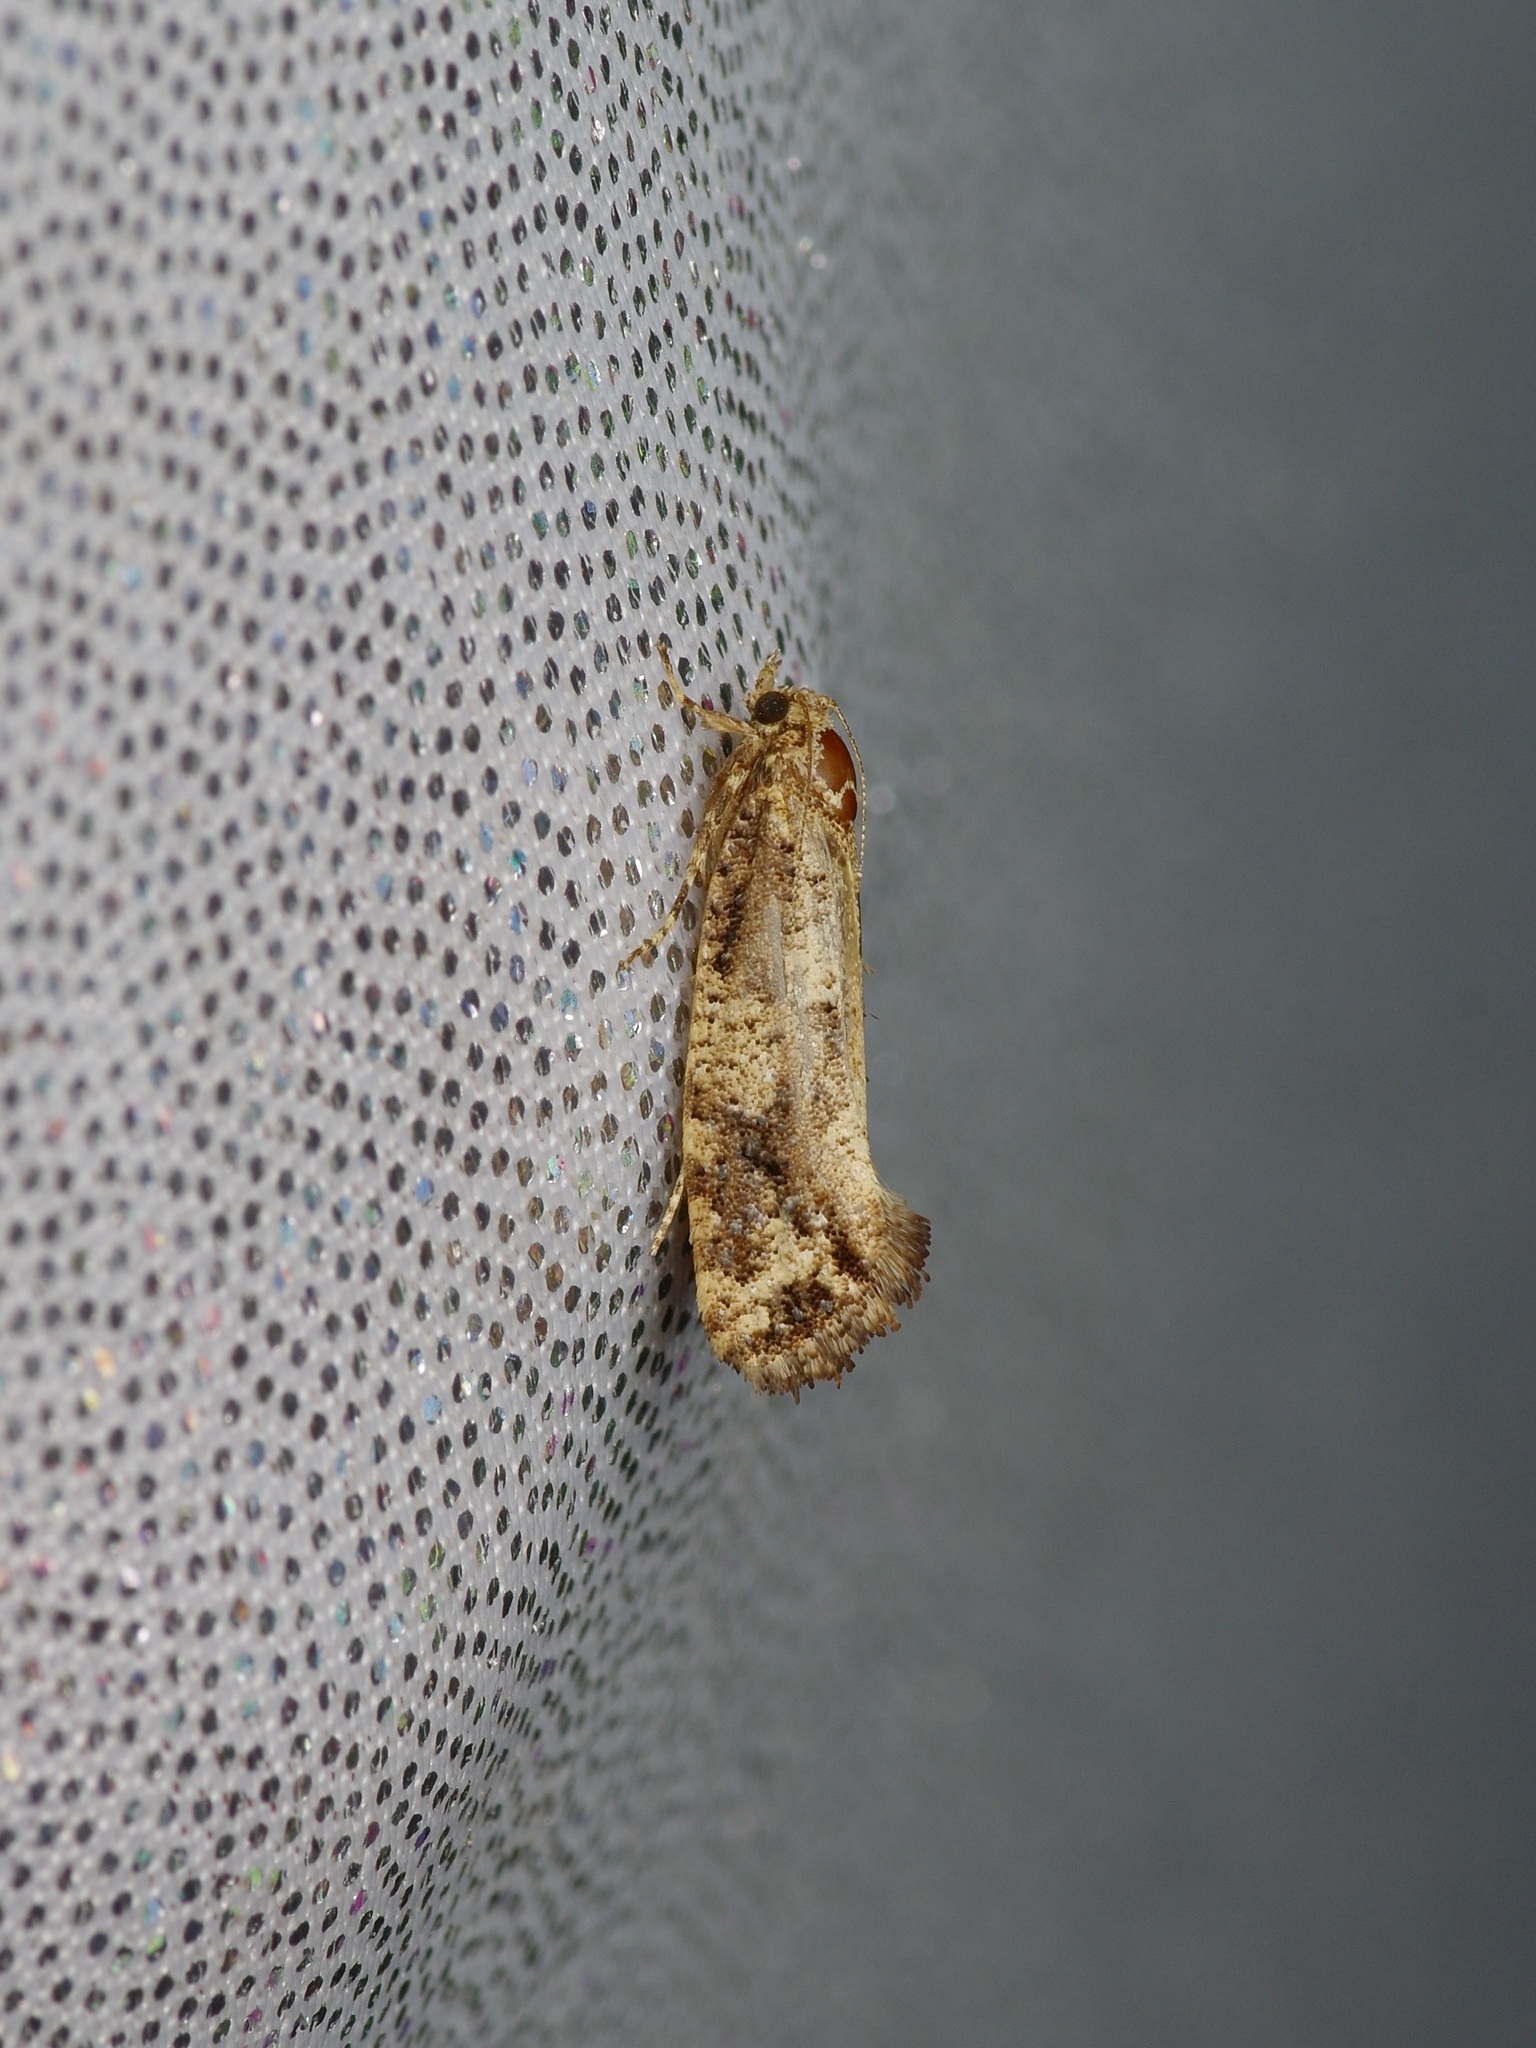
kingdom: Animalia
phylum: Arthropoda
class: Insecta
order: Lepidoptera
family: Tineidae
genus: Acrolophus
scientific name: Acrolophus cressoni
